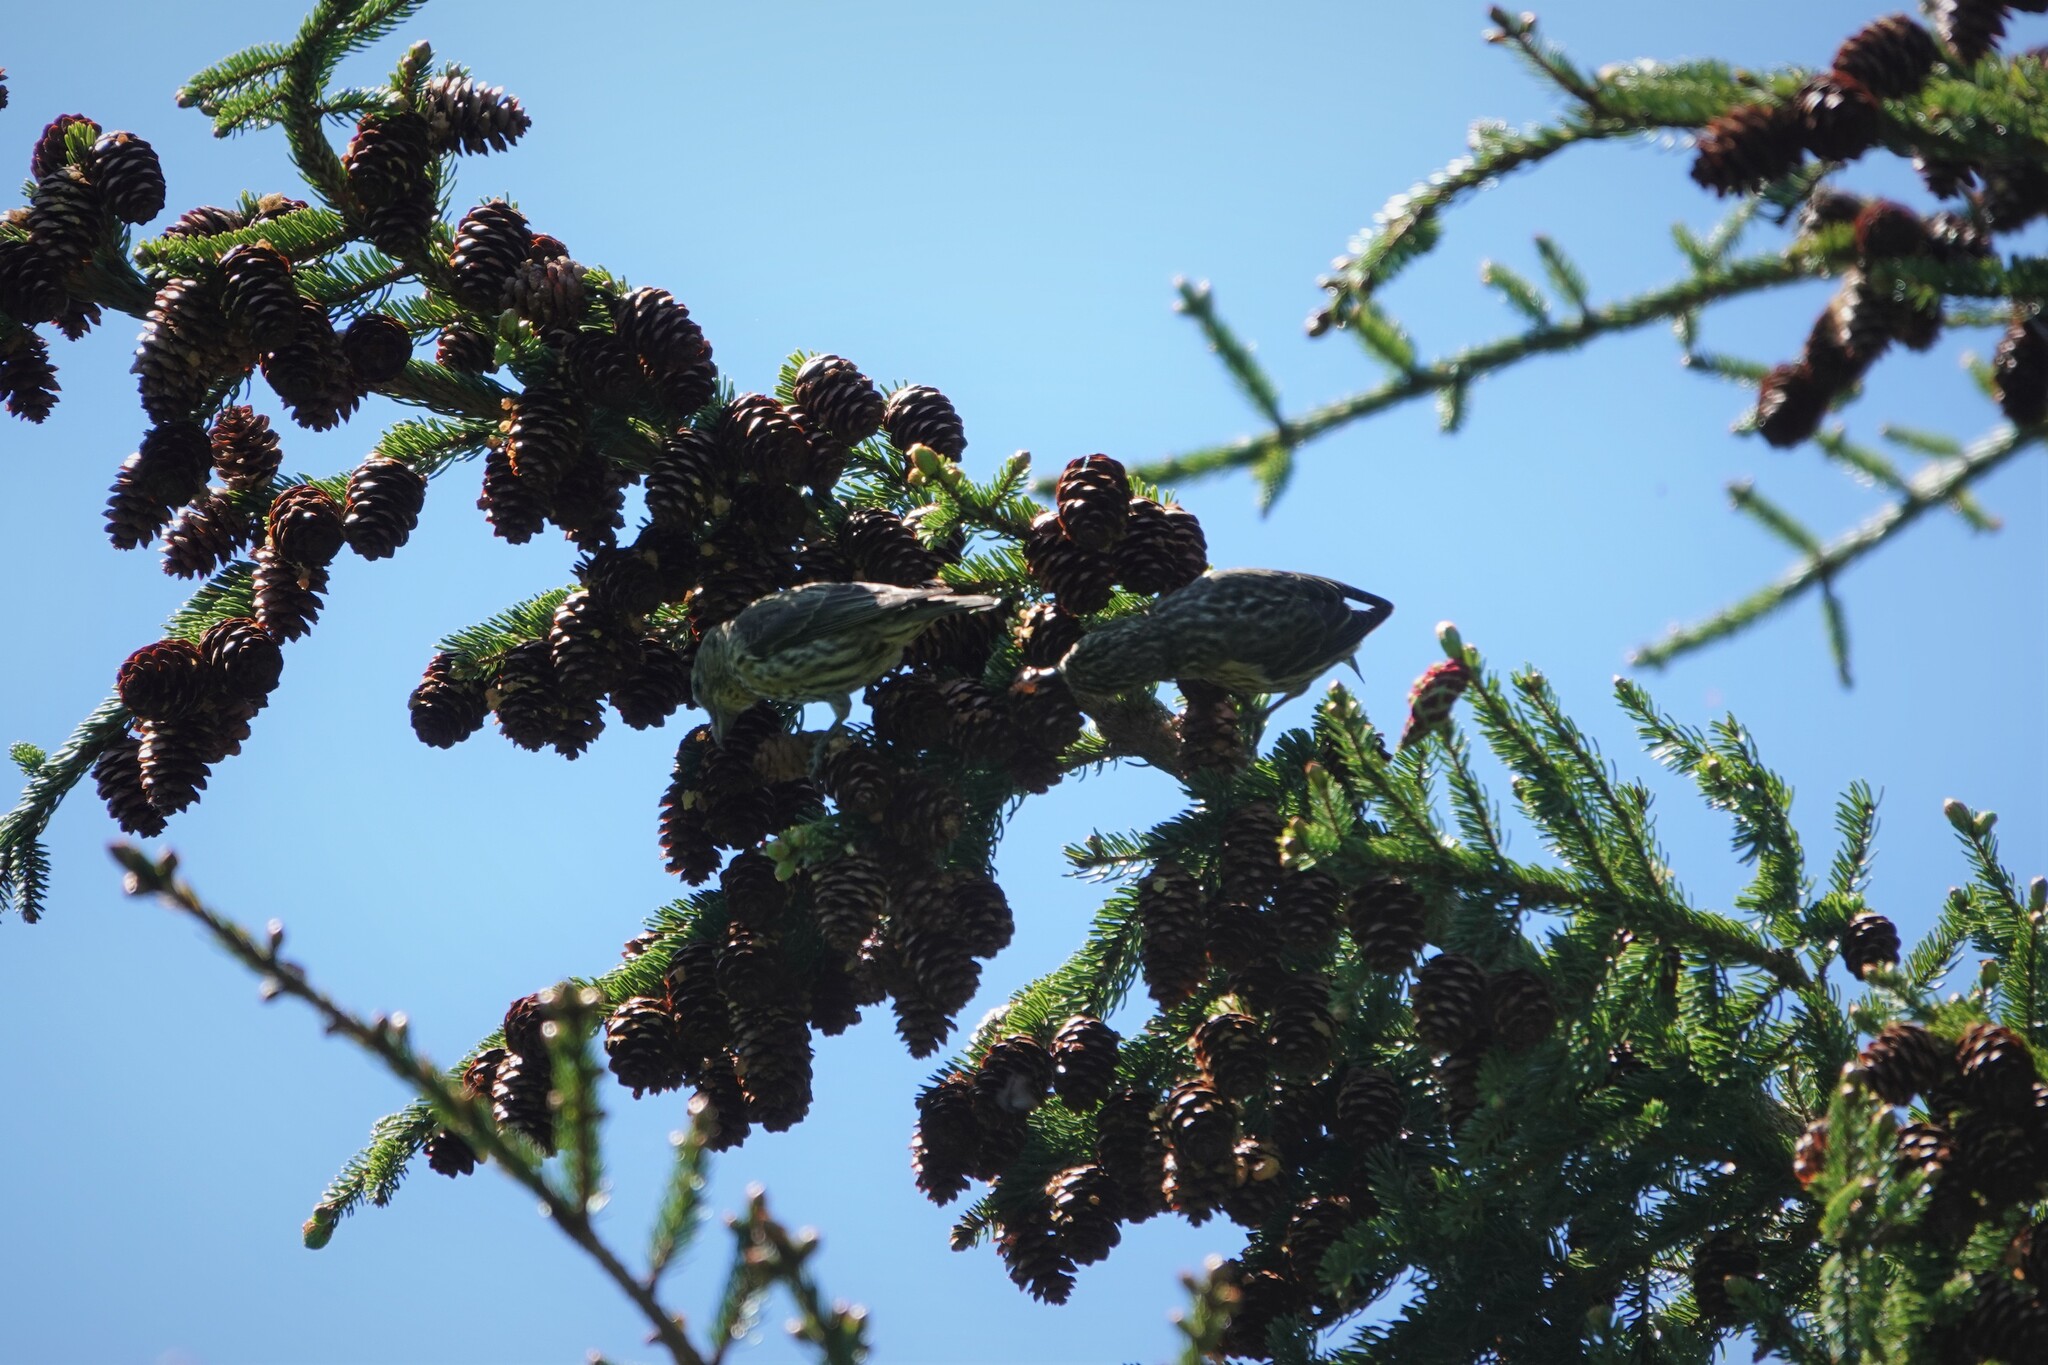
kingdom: Animalia
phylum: Chordata
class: Aves
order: Passeriformes
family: Fringillidae
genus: Loxia
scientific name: Loxia curvirostra
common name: Red crossbill
